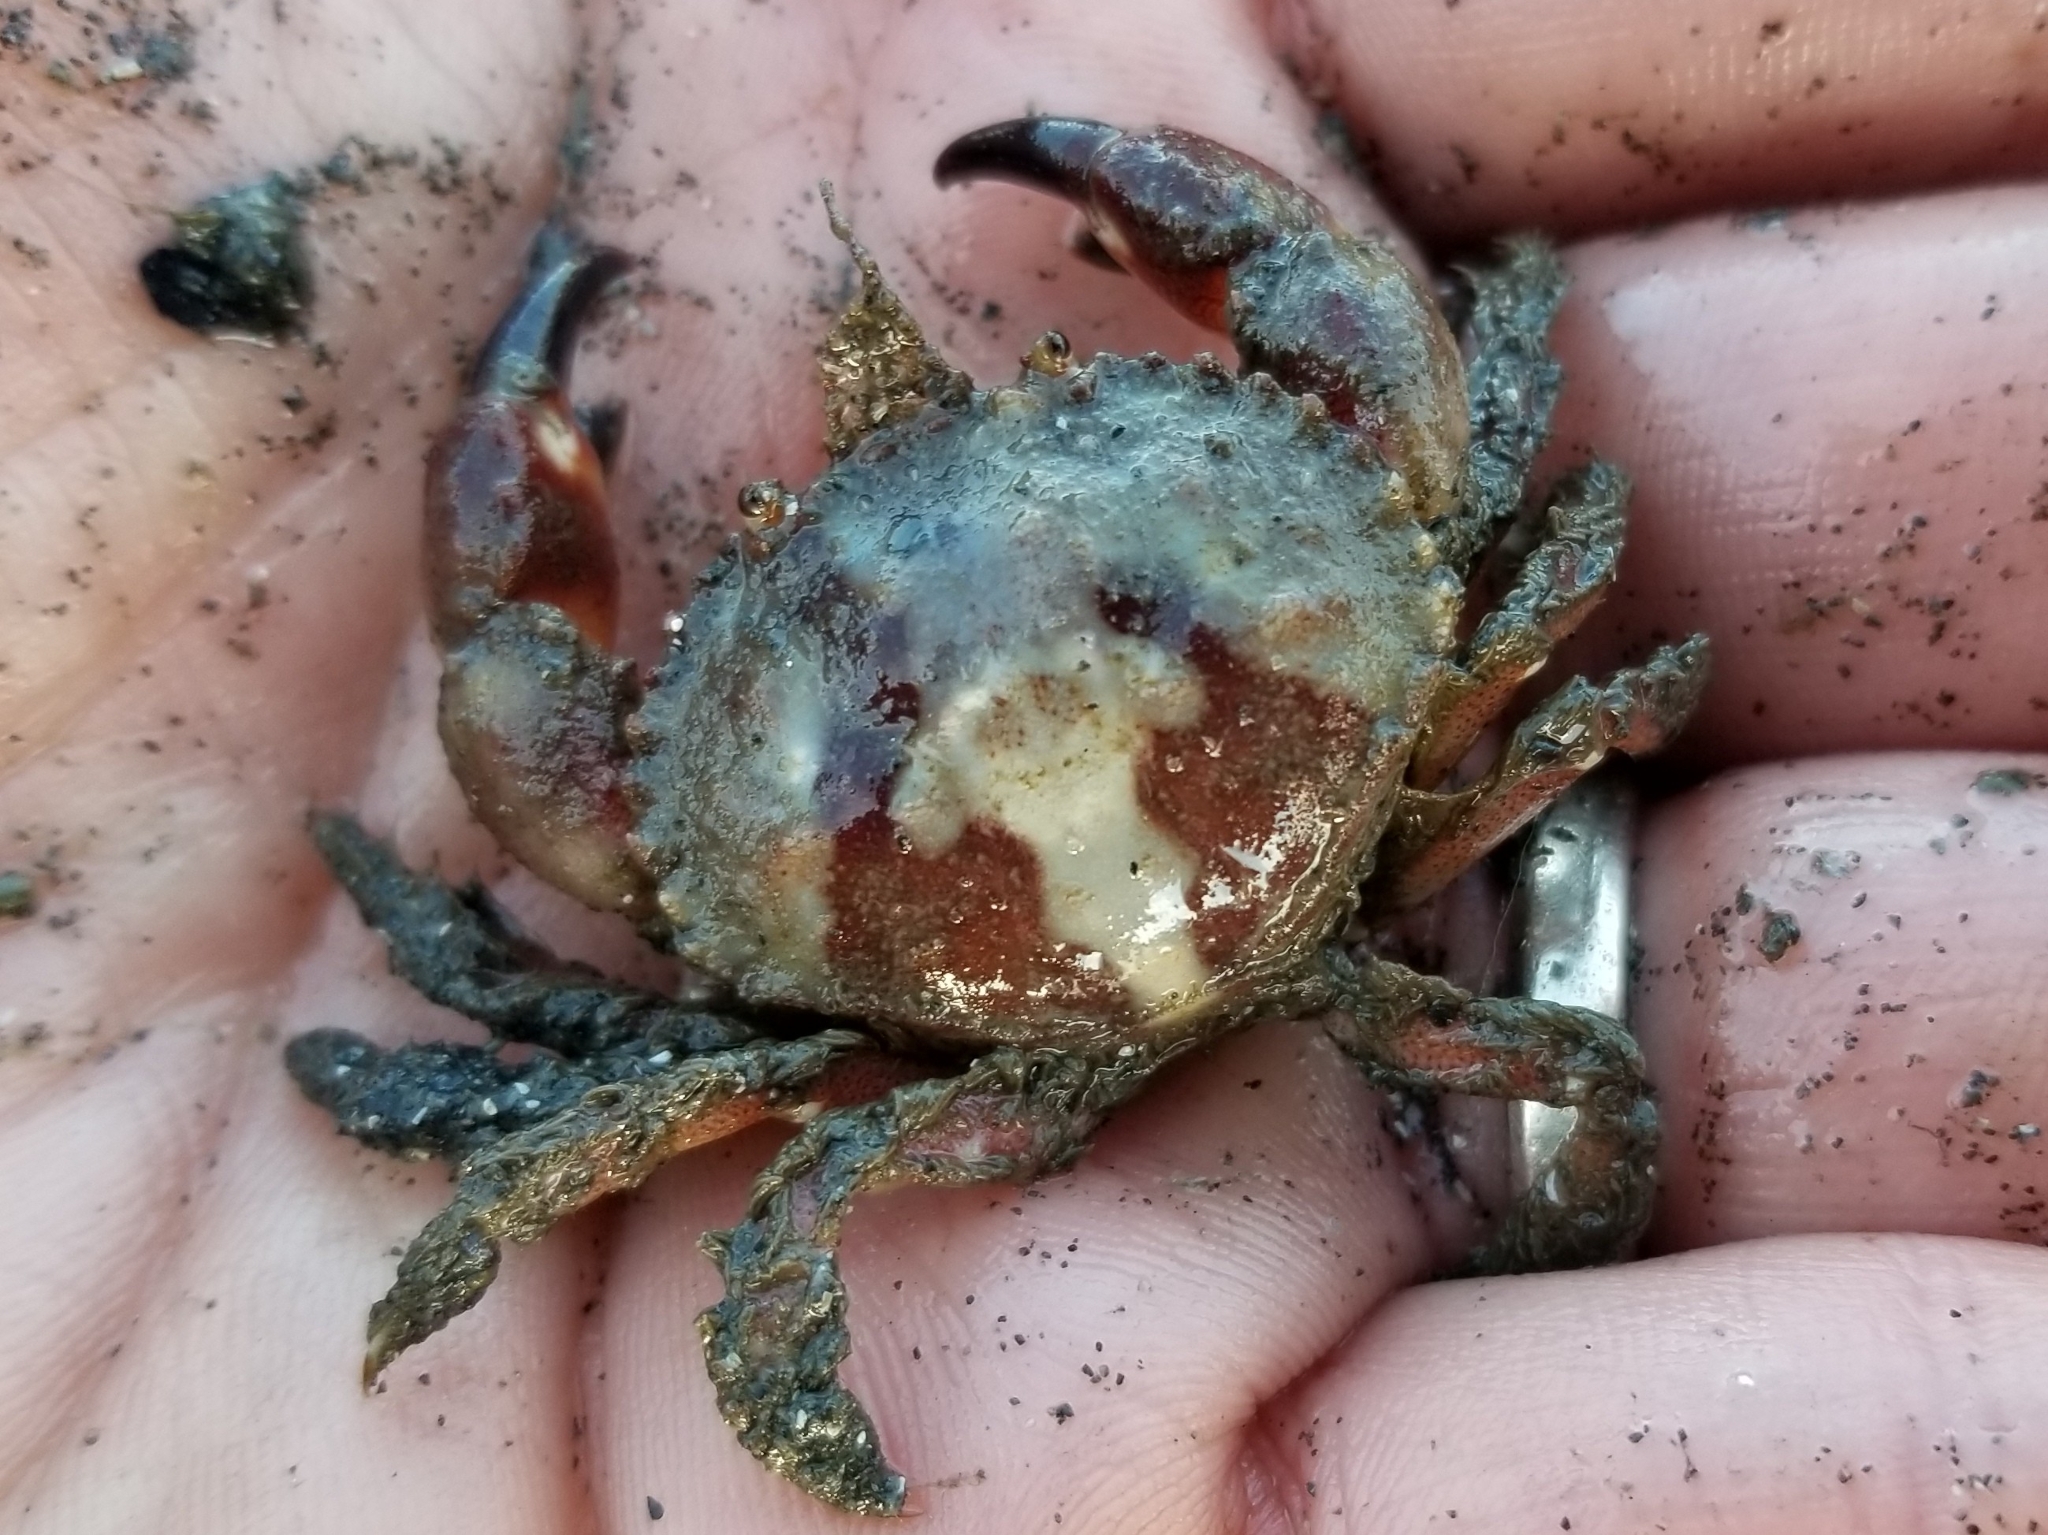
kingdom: Animalia
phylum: Arthropoda
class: Malacostraca
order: Decapoda
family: Cancridae
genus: Glebocarcinus
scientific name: Glebocarcinus oregonensis
